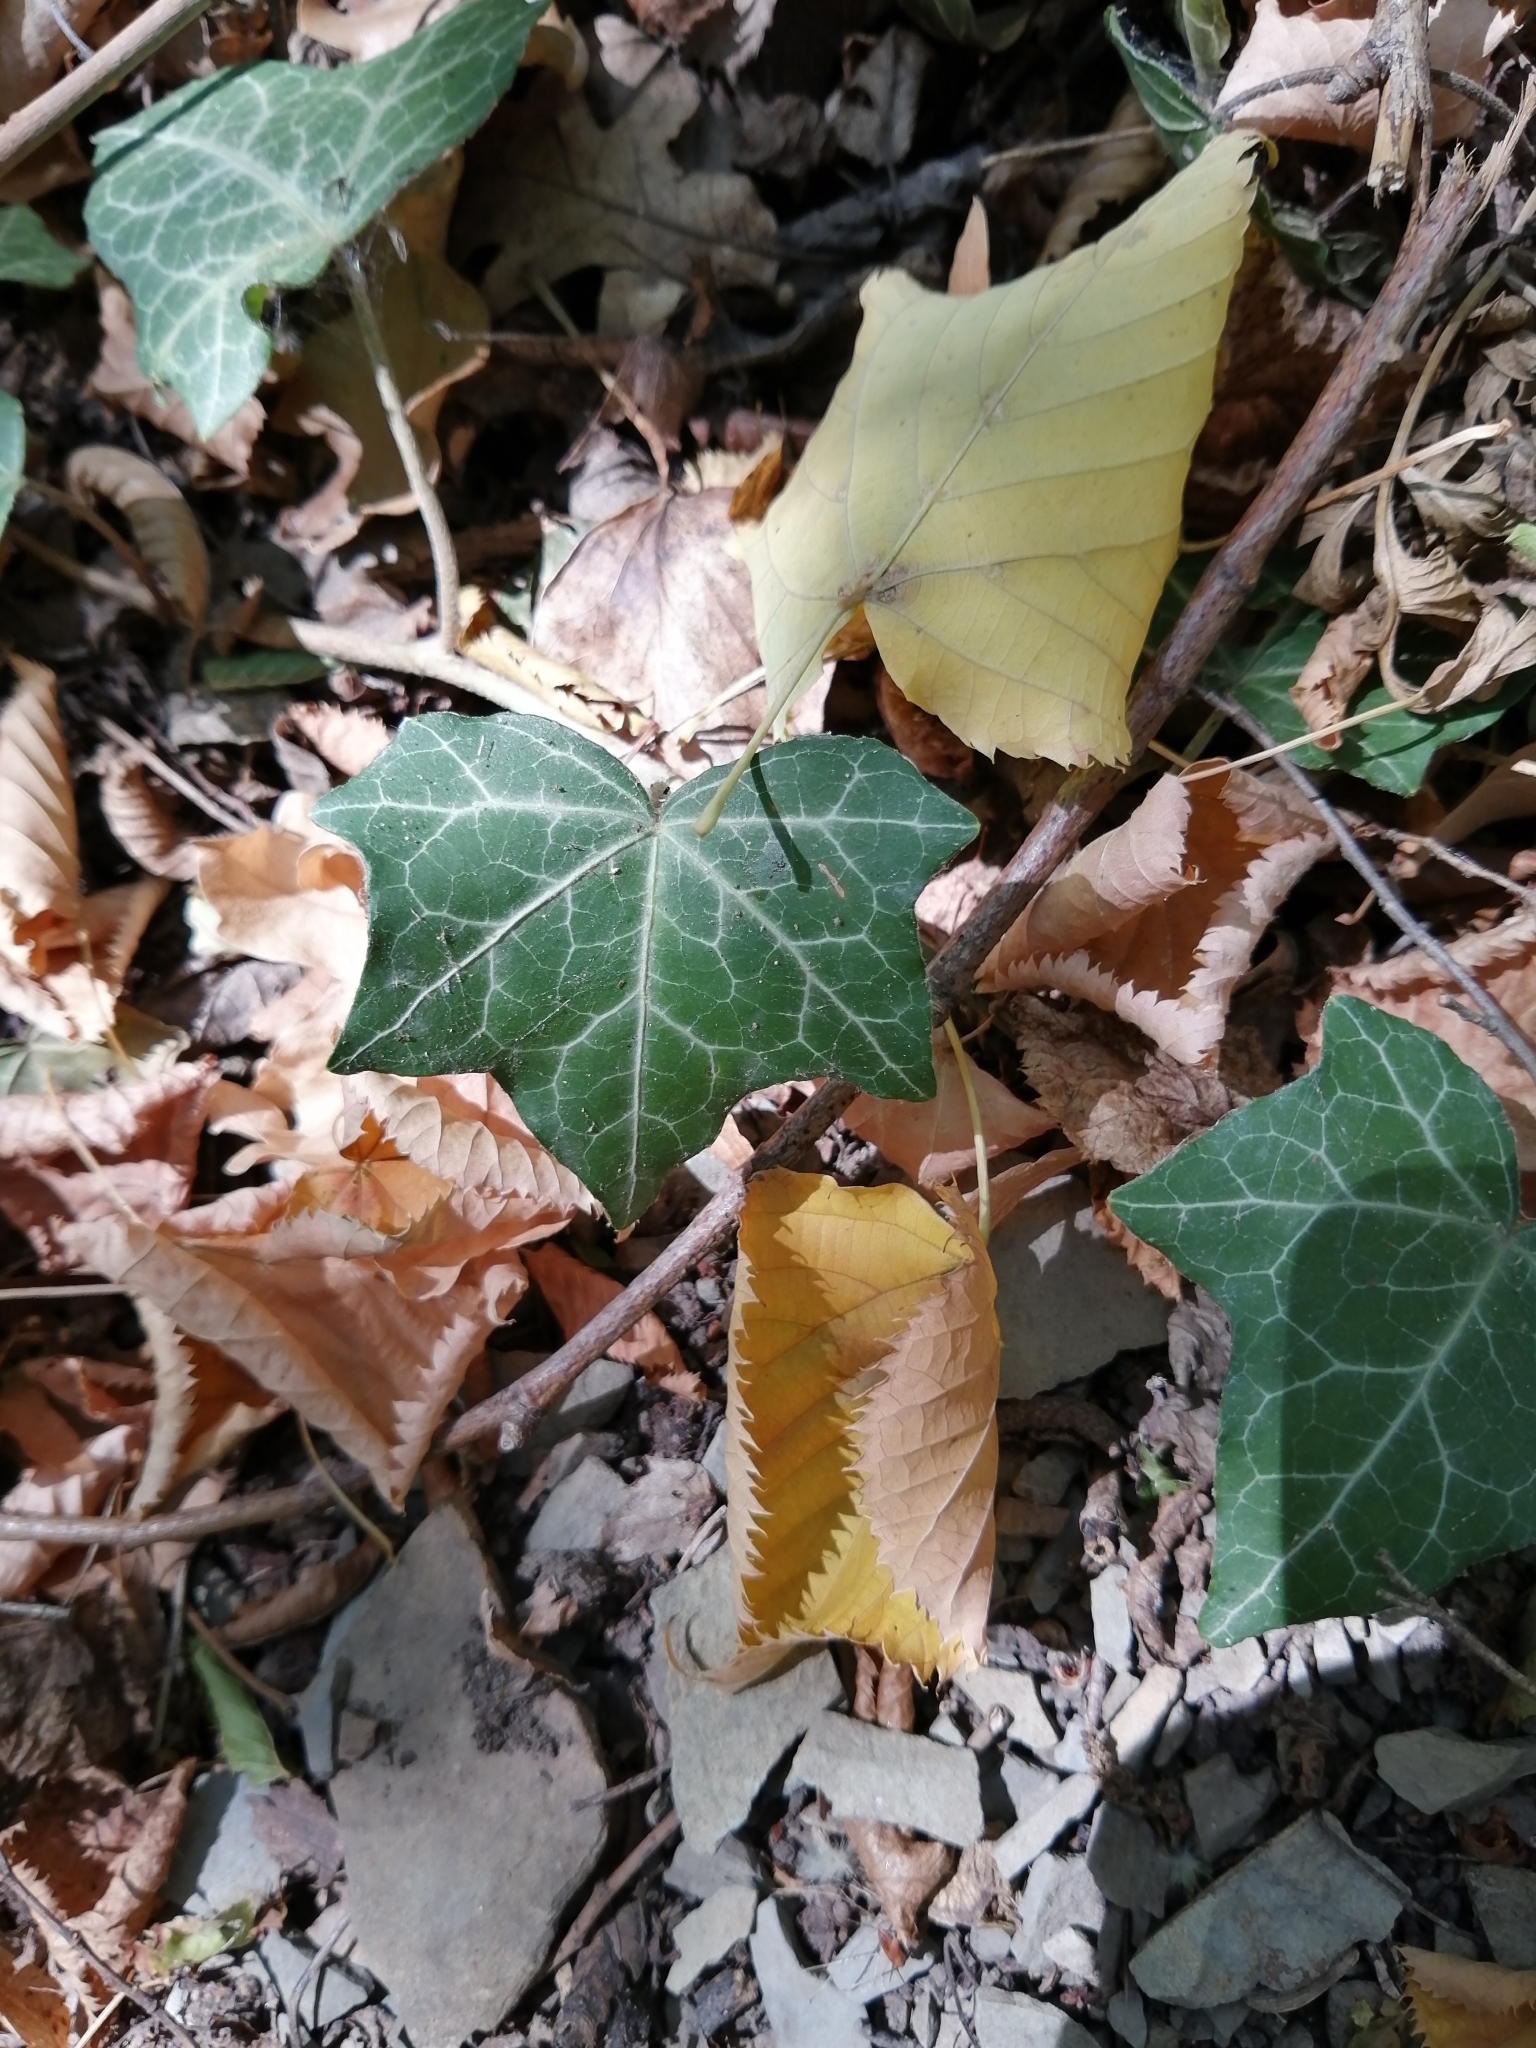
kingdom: Plantae
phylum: Tracheophyta
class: Magnoliopsida
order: Apiales
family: Araliaceae
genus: Hedera
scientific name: Hedera helix
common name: Ivy
